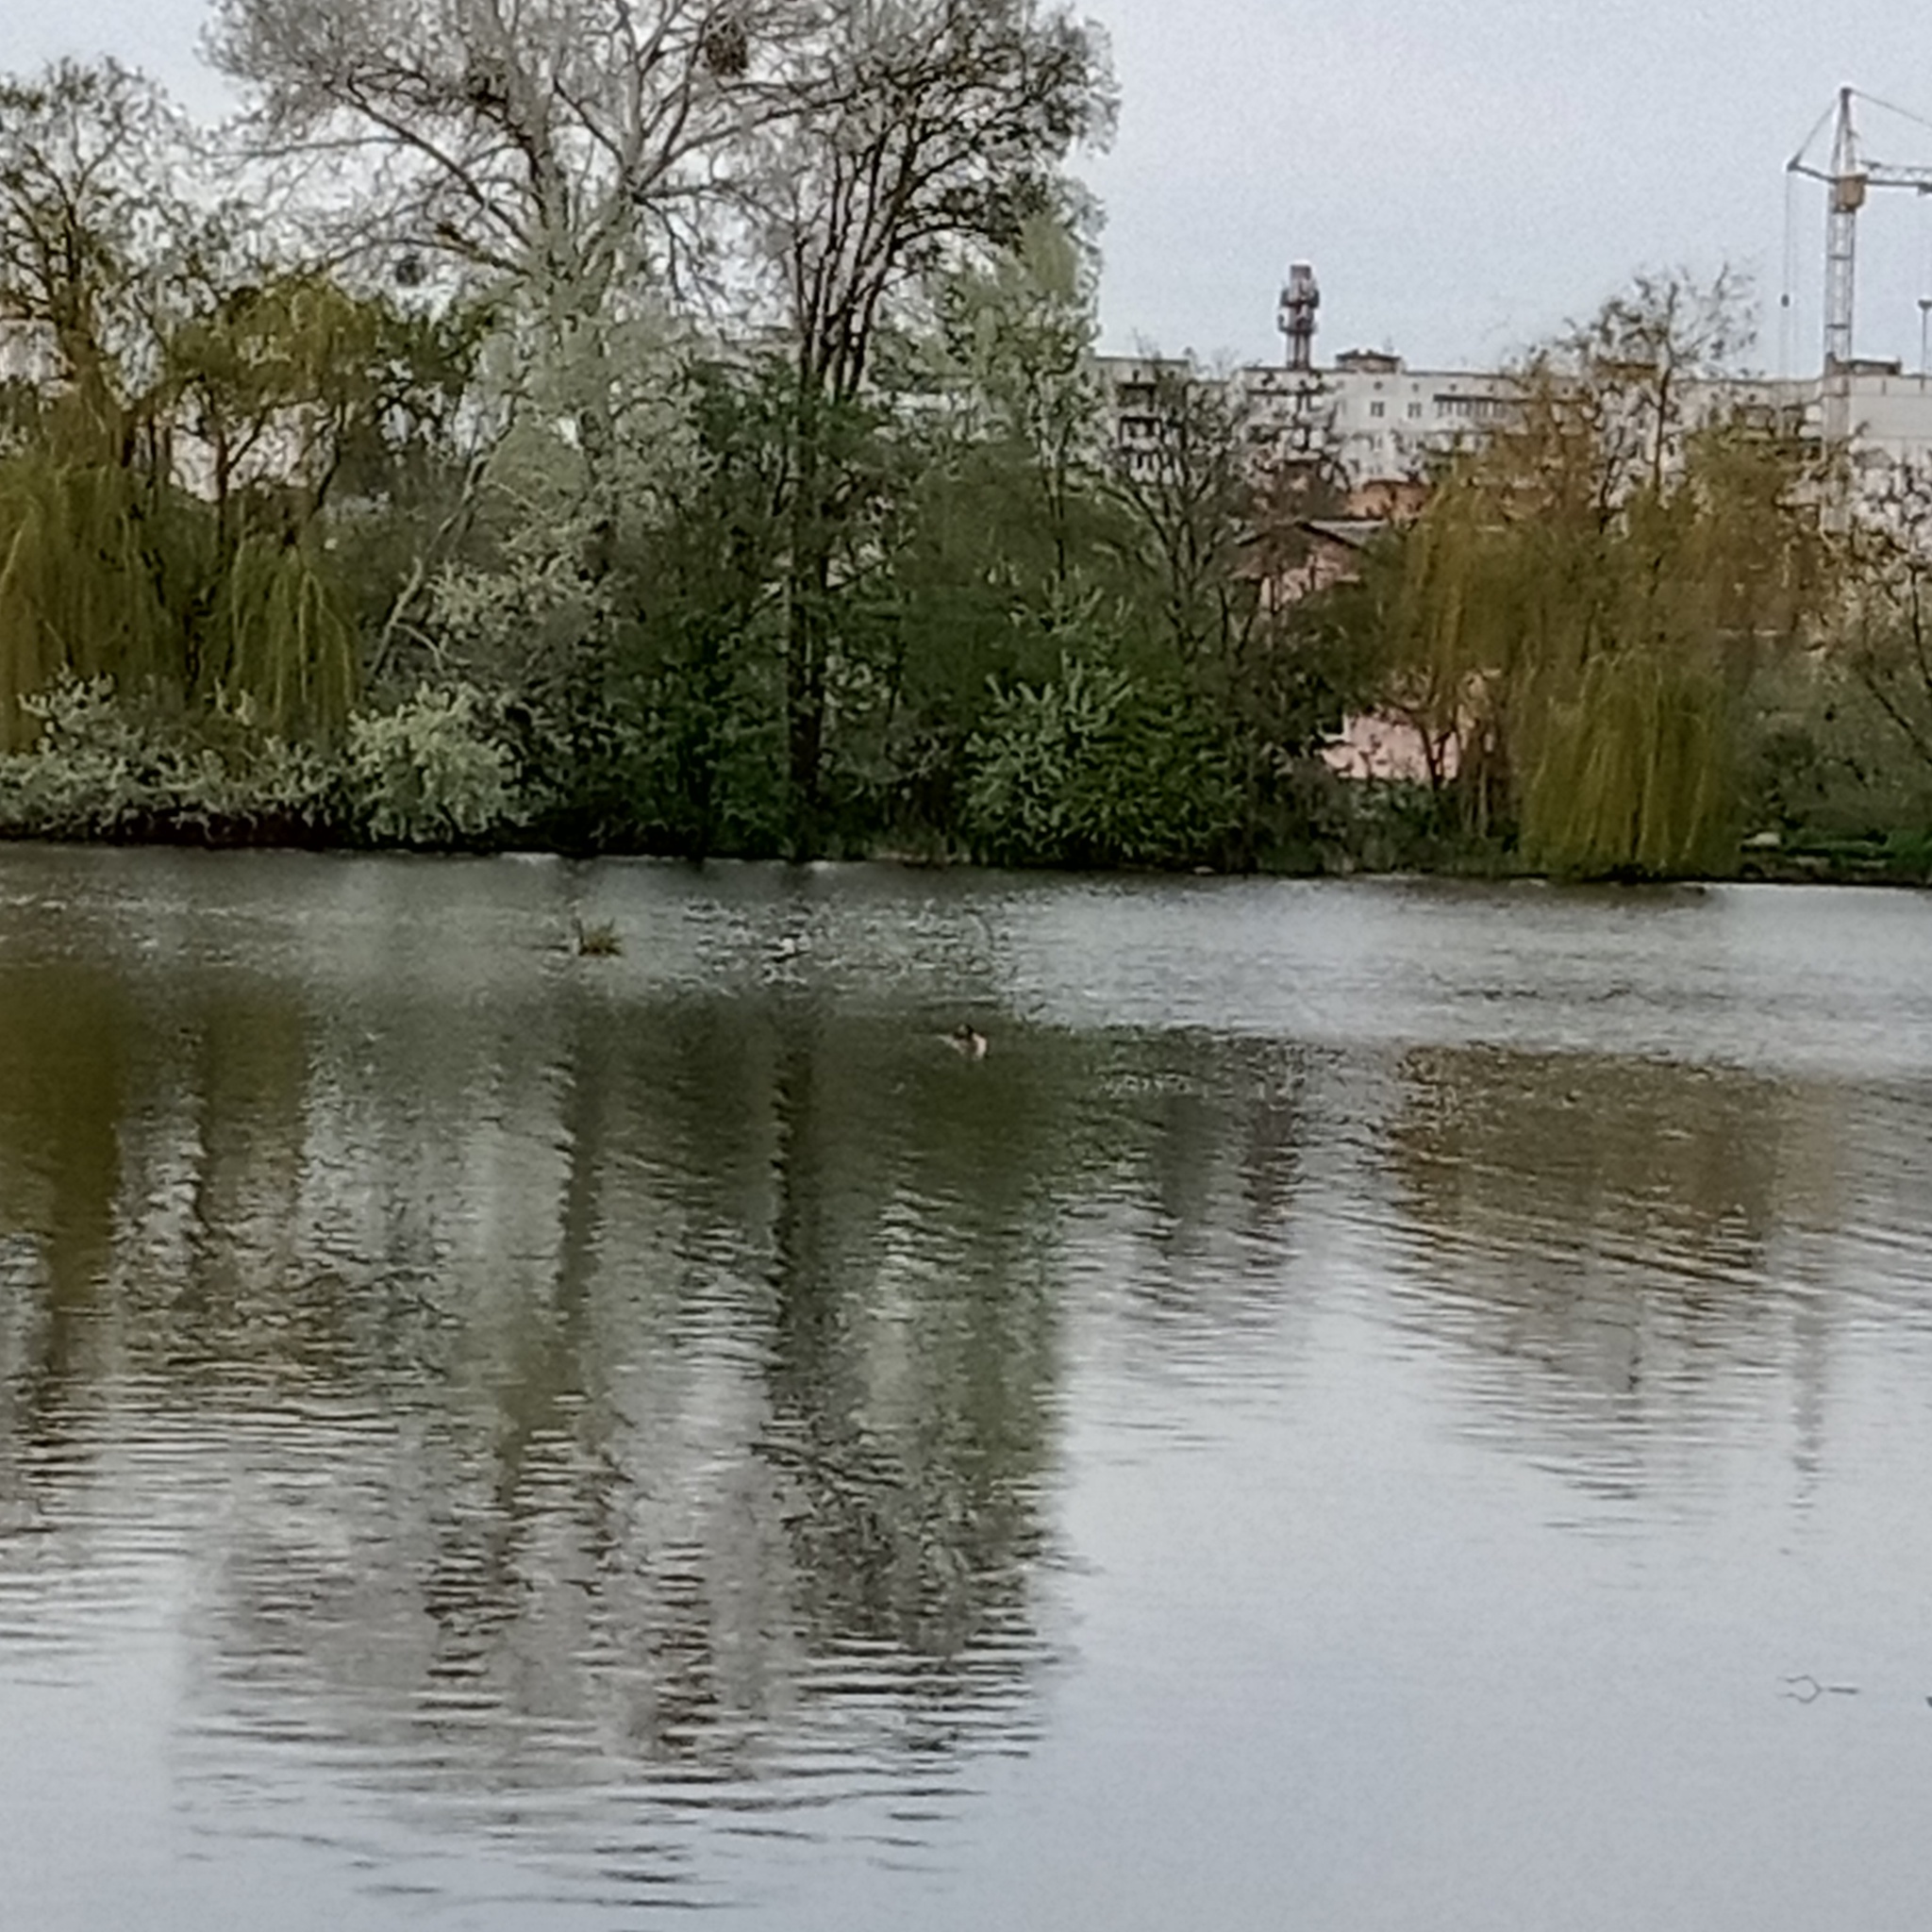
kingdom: Animalia
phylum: Chordata
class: Aves
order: Podicipediformes
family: Podicipedidae
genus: Podiceps
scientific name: Podiceps cristatus
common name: Great crested grebe
